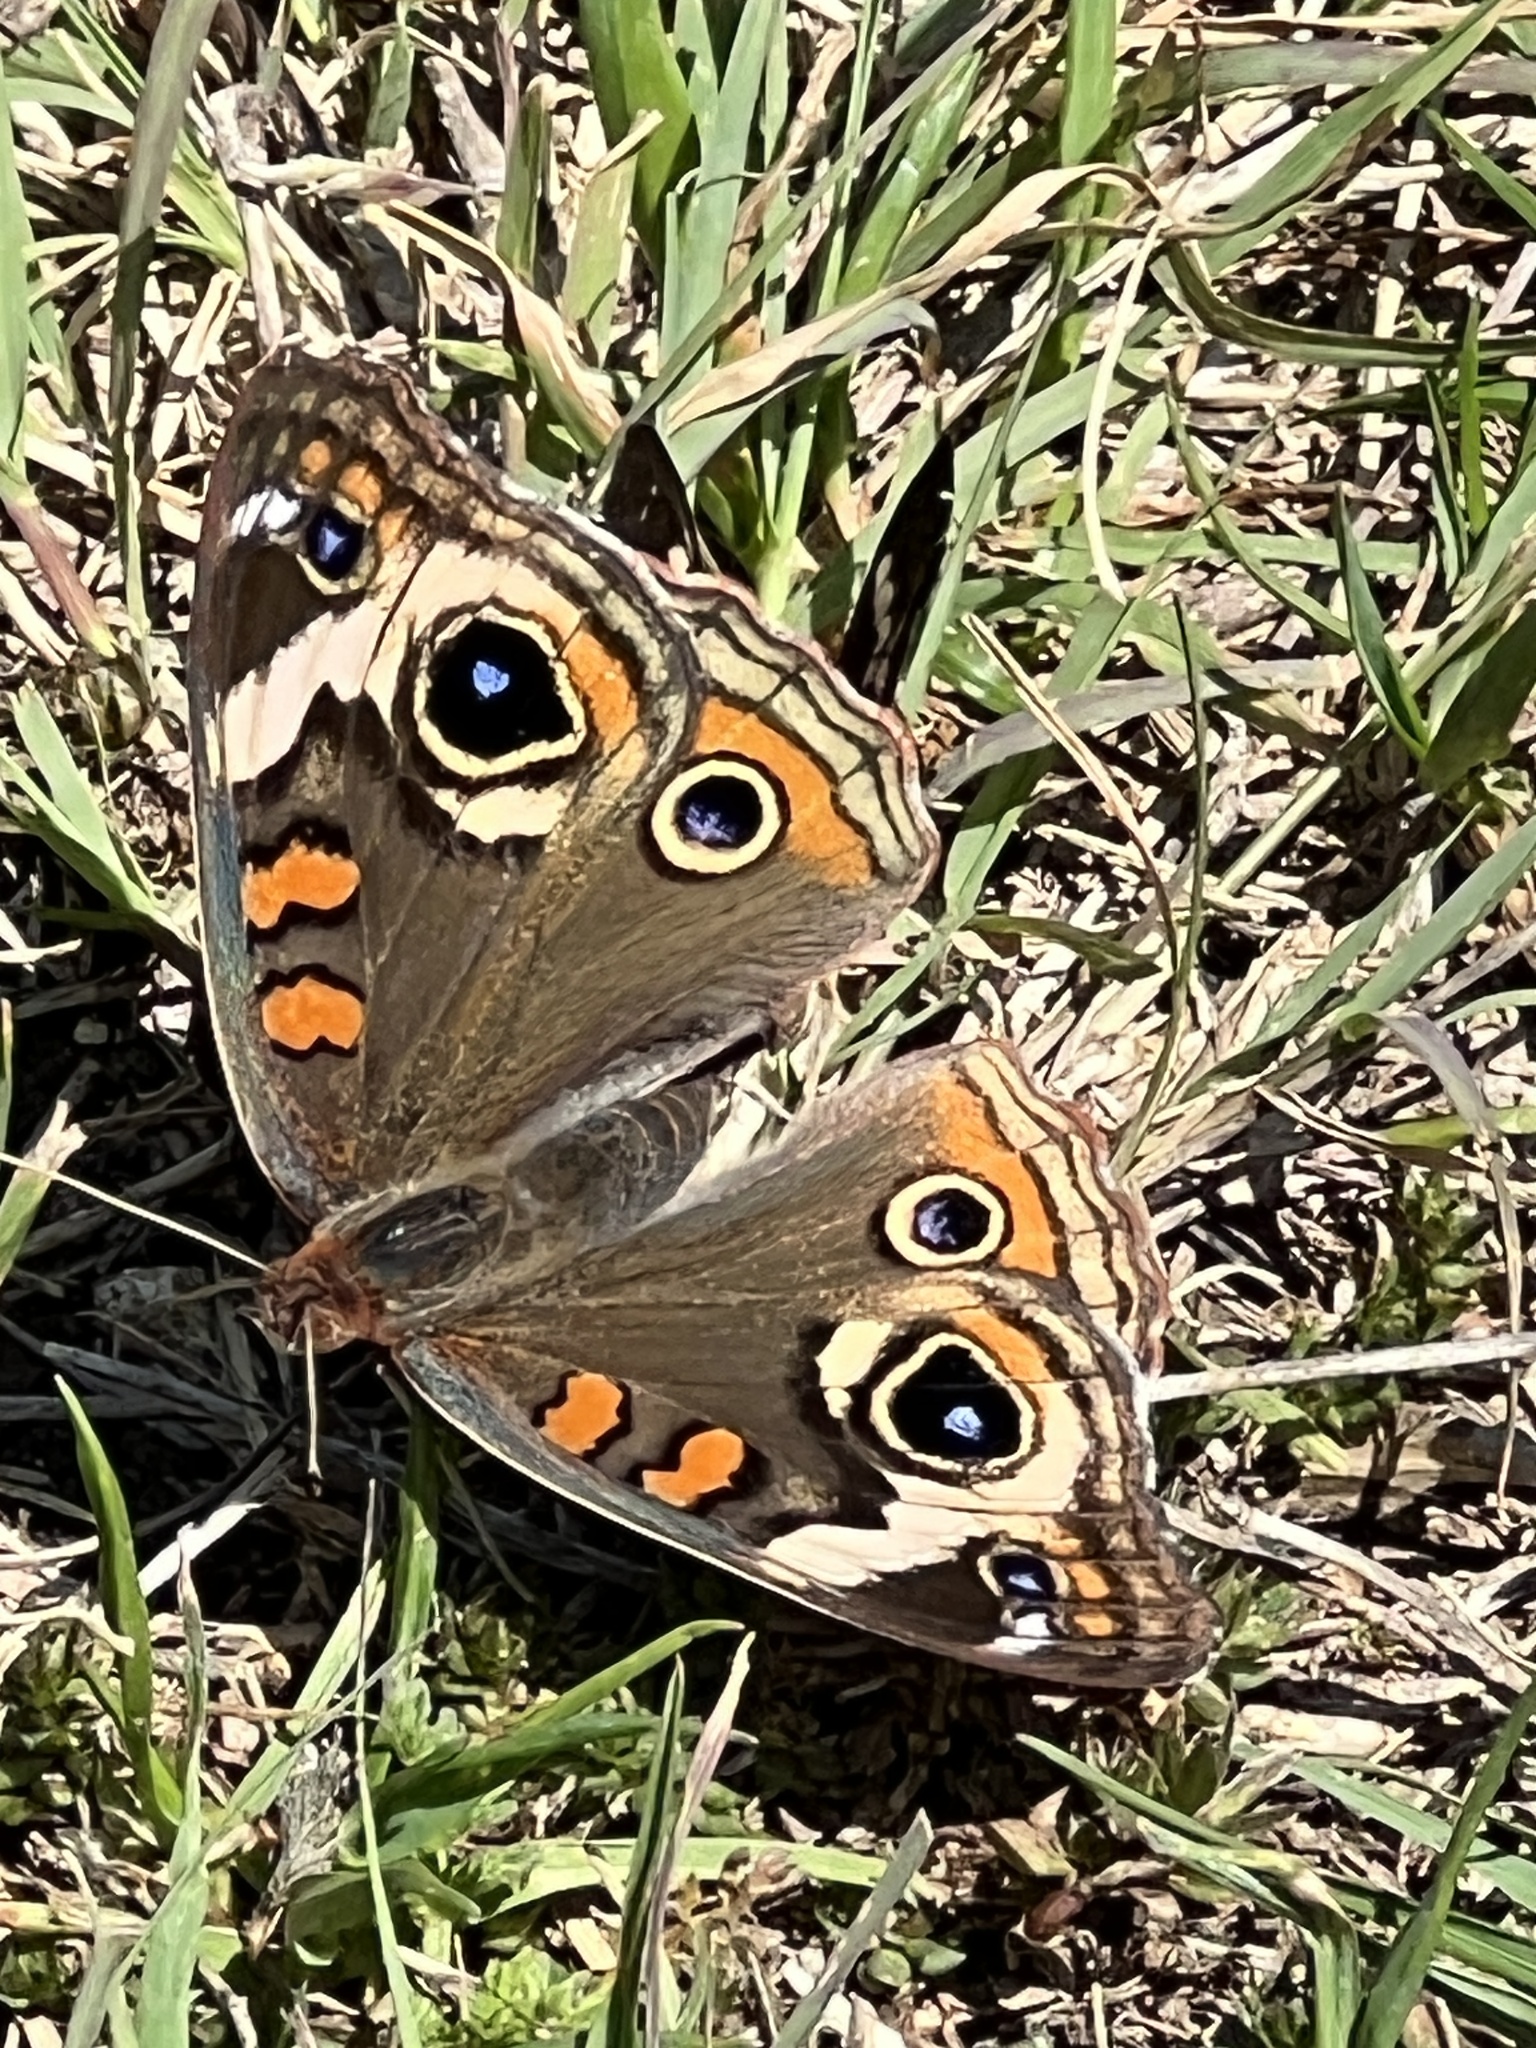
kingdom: Animalia
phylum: Arthropoda
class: Insecta
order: Lepidoptera
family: Nymphalidae
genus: Junonia
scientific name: Junonia coenia
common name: Common buckeye
